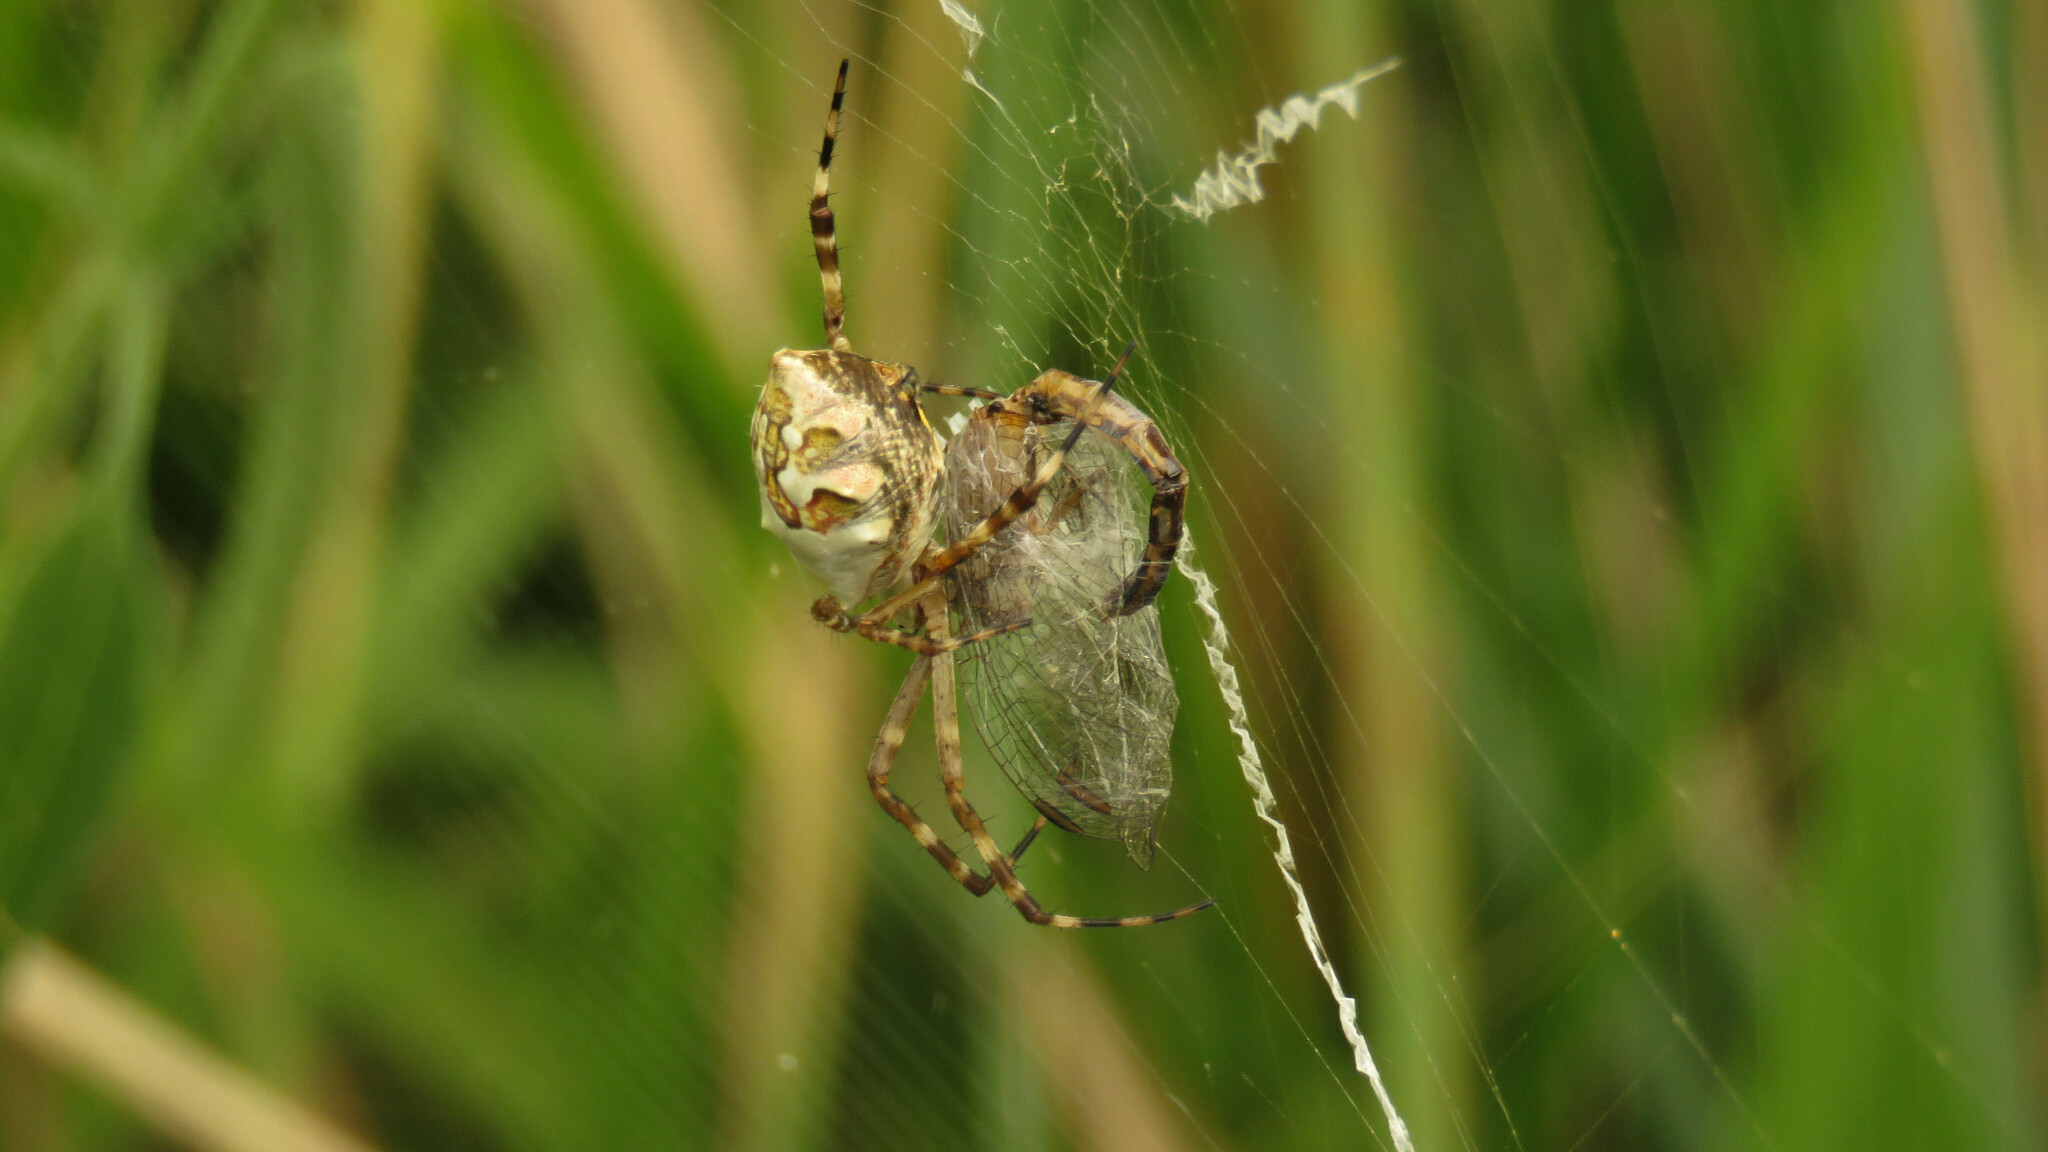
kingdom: Animalia
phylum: Arthropoda
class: Arachnida
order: Araneae
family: Araneidae
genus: Argiope
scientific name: Argiope argentata
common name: Orb weavers
